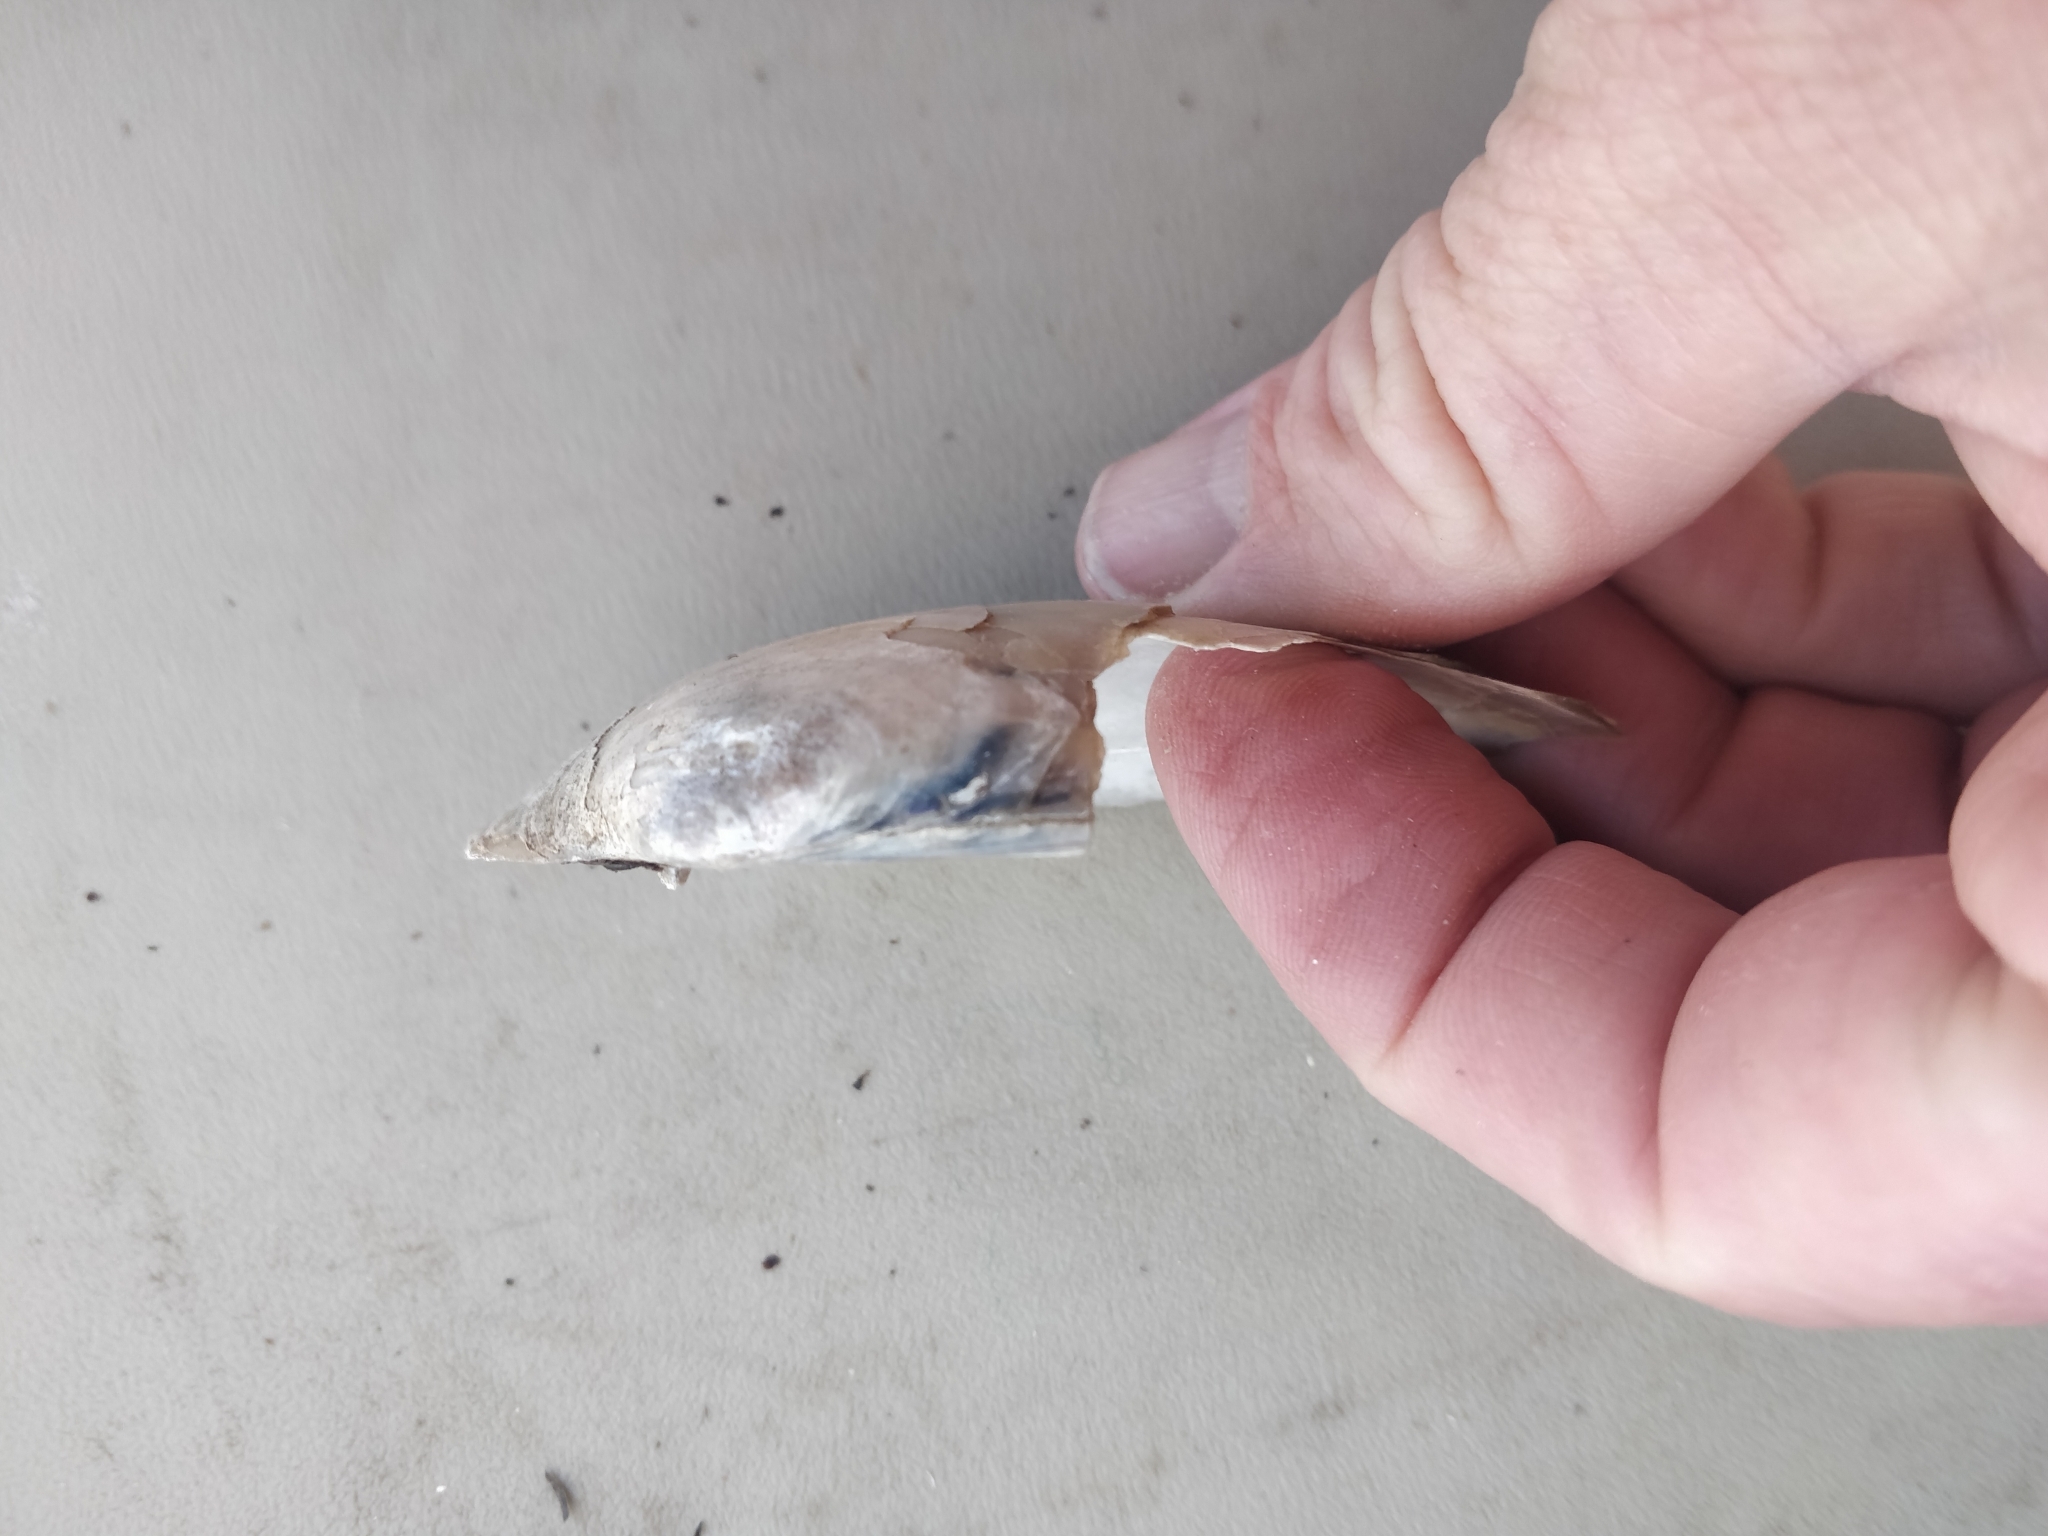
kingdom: Animalia
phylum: Mollusca
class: Bivalvia
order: Unionida
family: Unionidae
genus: Lampsilis
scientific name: Lampsilis siliquoidea
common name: Fatmucket
